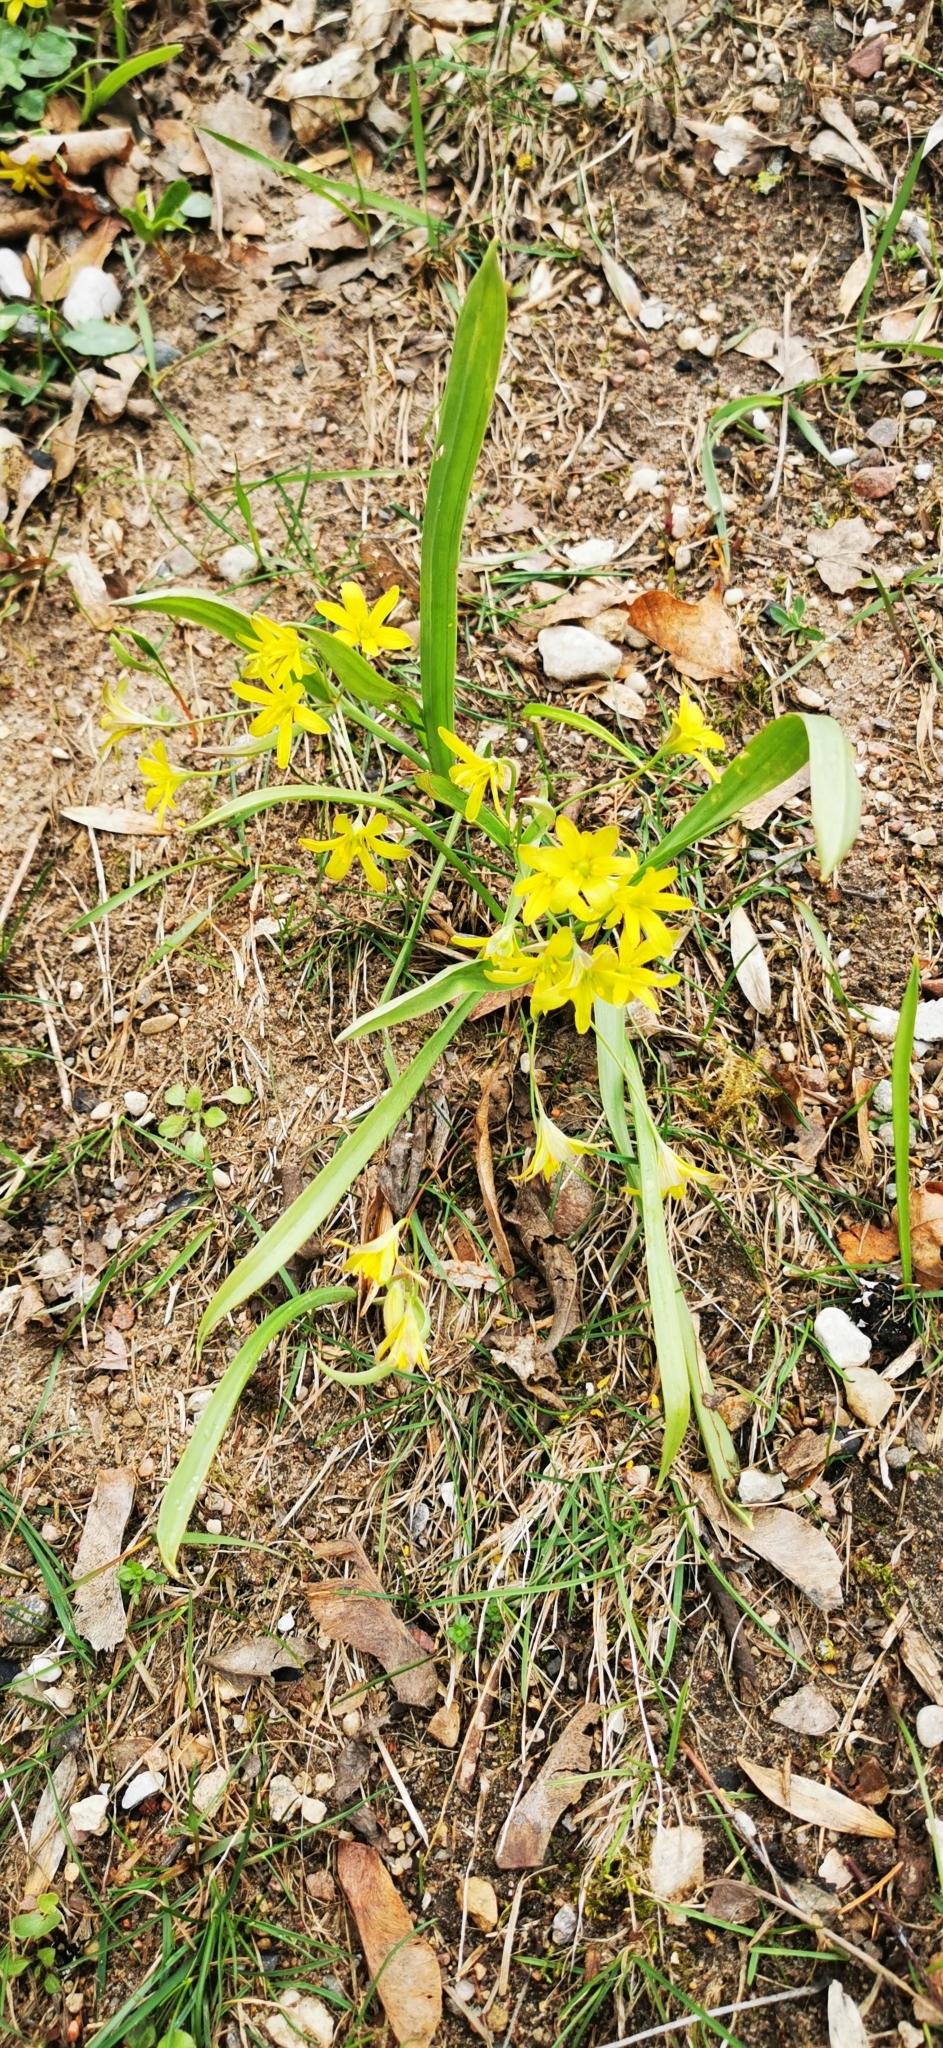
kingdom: Plantae
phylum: Tracheophyta
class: Liliopsida
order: Liliales
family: Liliaceae
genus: Gagea
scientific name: Gagea lutea
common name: Yellow star-of-bethlehem
